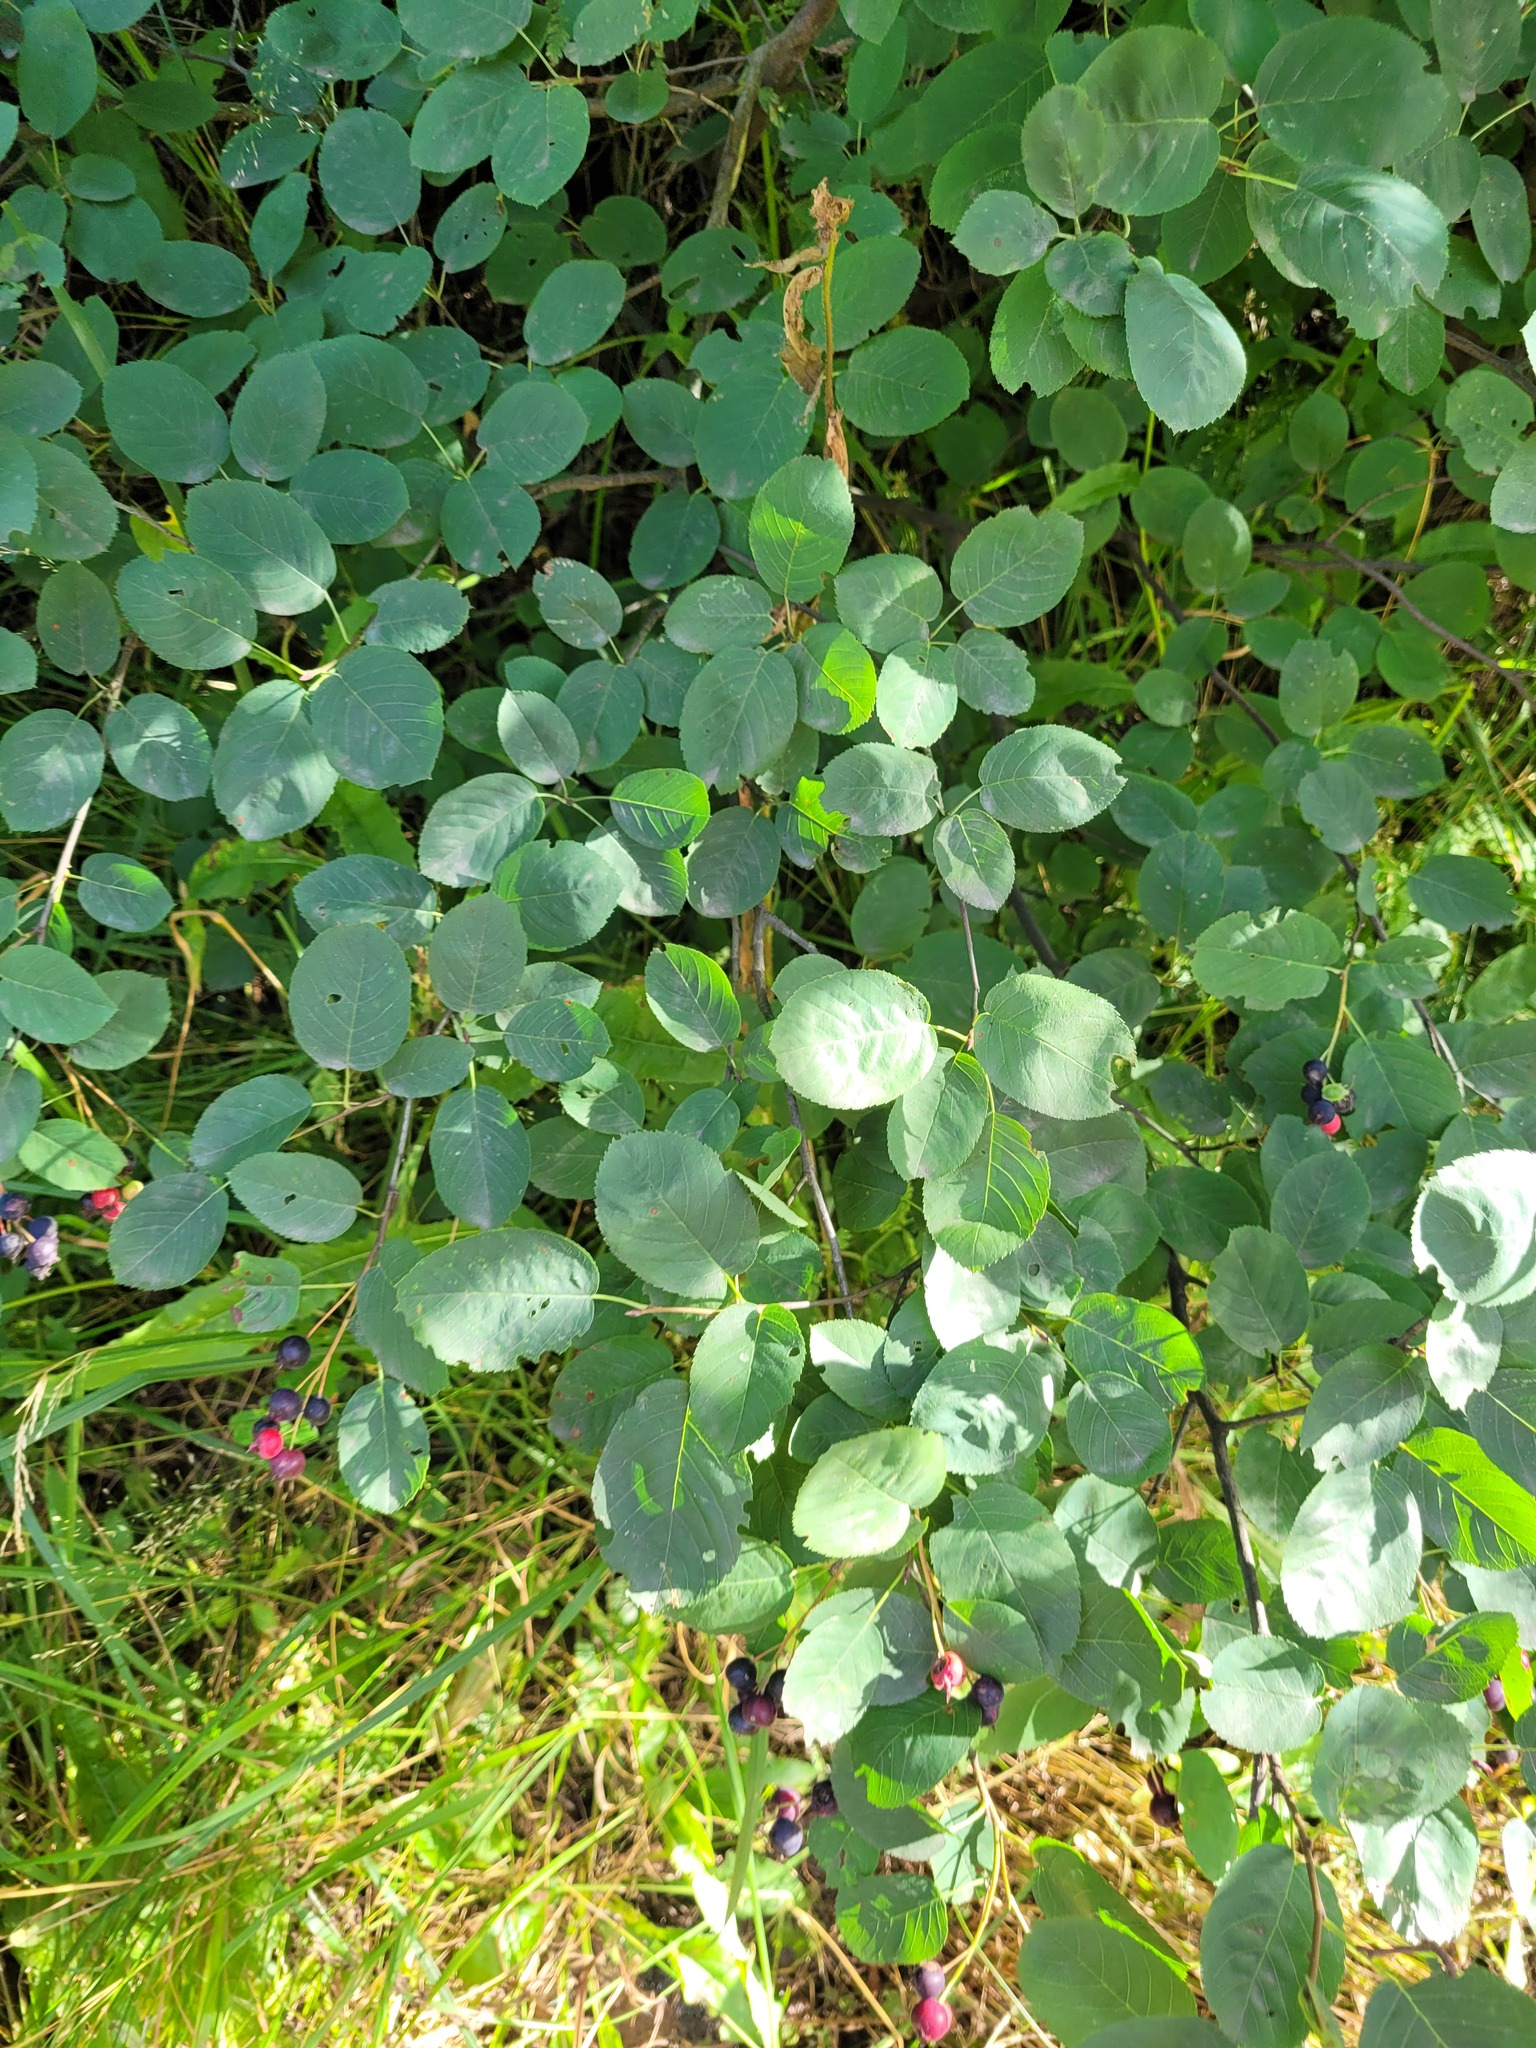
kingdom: Plantae
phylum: Tracheophyta
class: Magnoliopsida
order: Rosales
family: Rosaceae
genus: Amelanchier
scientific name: Amelanchier
